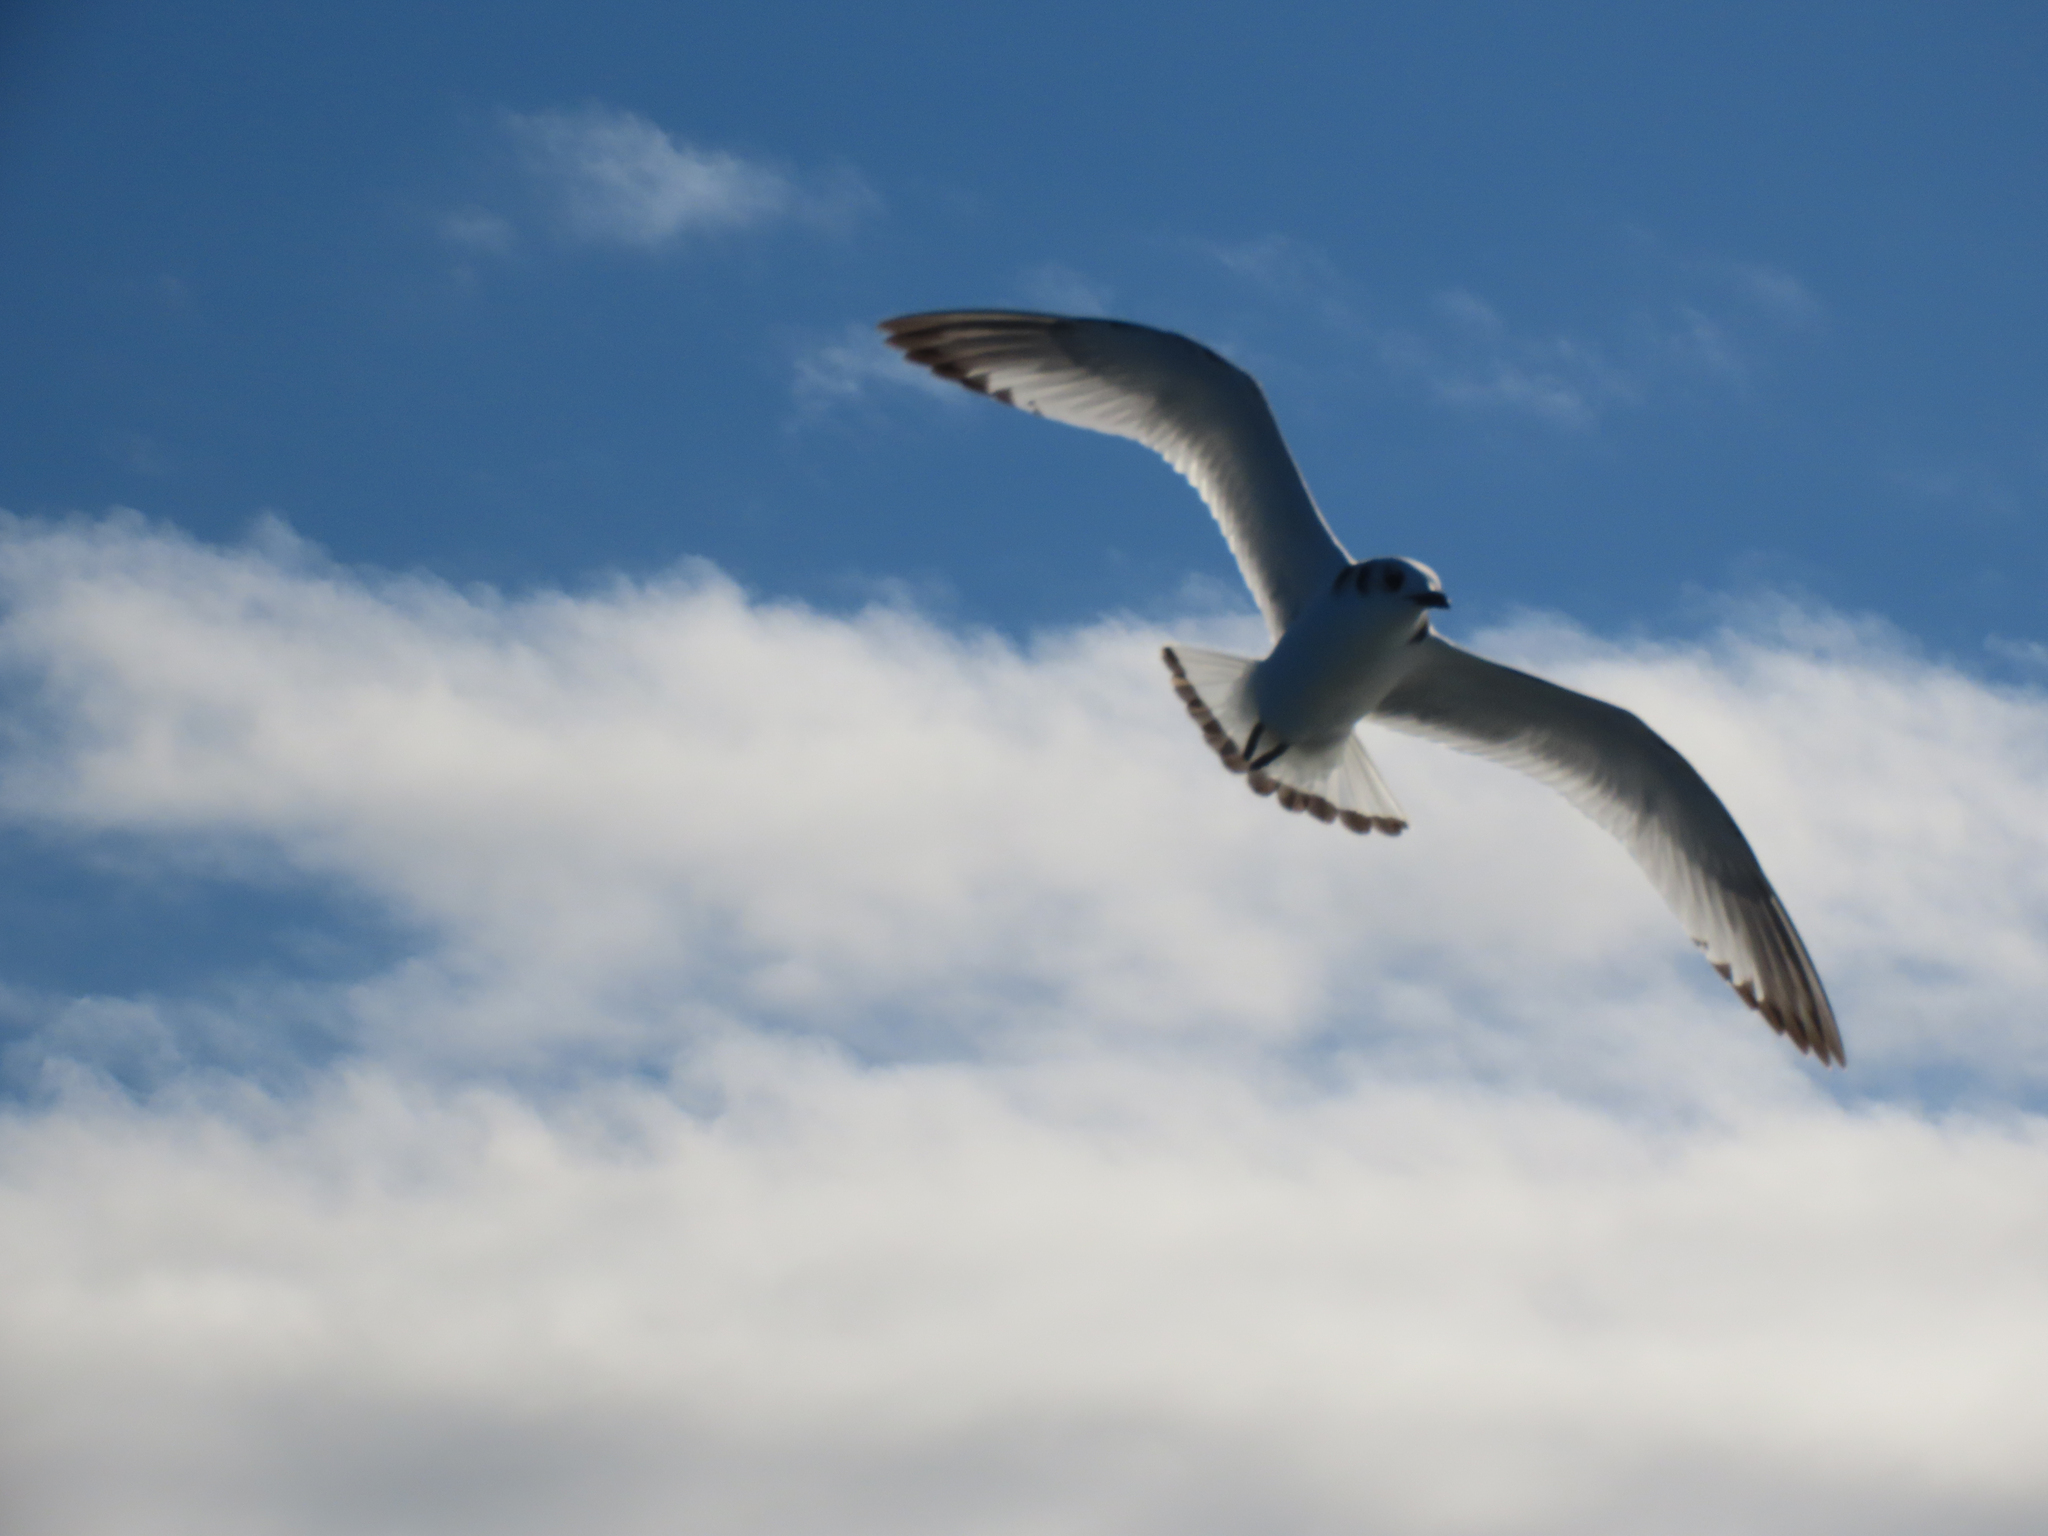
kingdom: Animalia
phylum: Chordata
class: Aves
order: Charadriiformes
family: Laridae
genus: Rissa
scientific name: Rissa tridactyla
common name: Black-legged kittiwake
